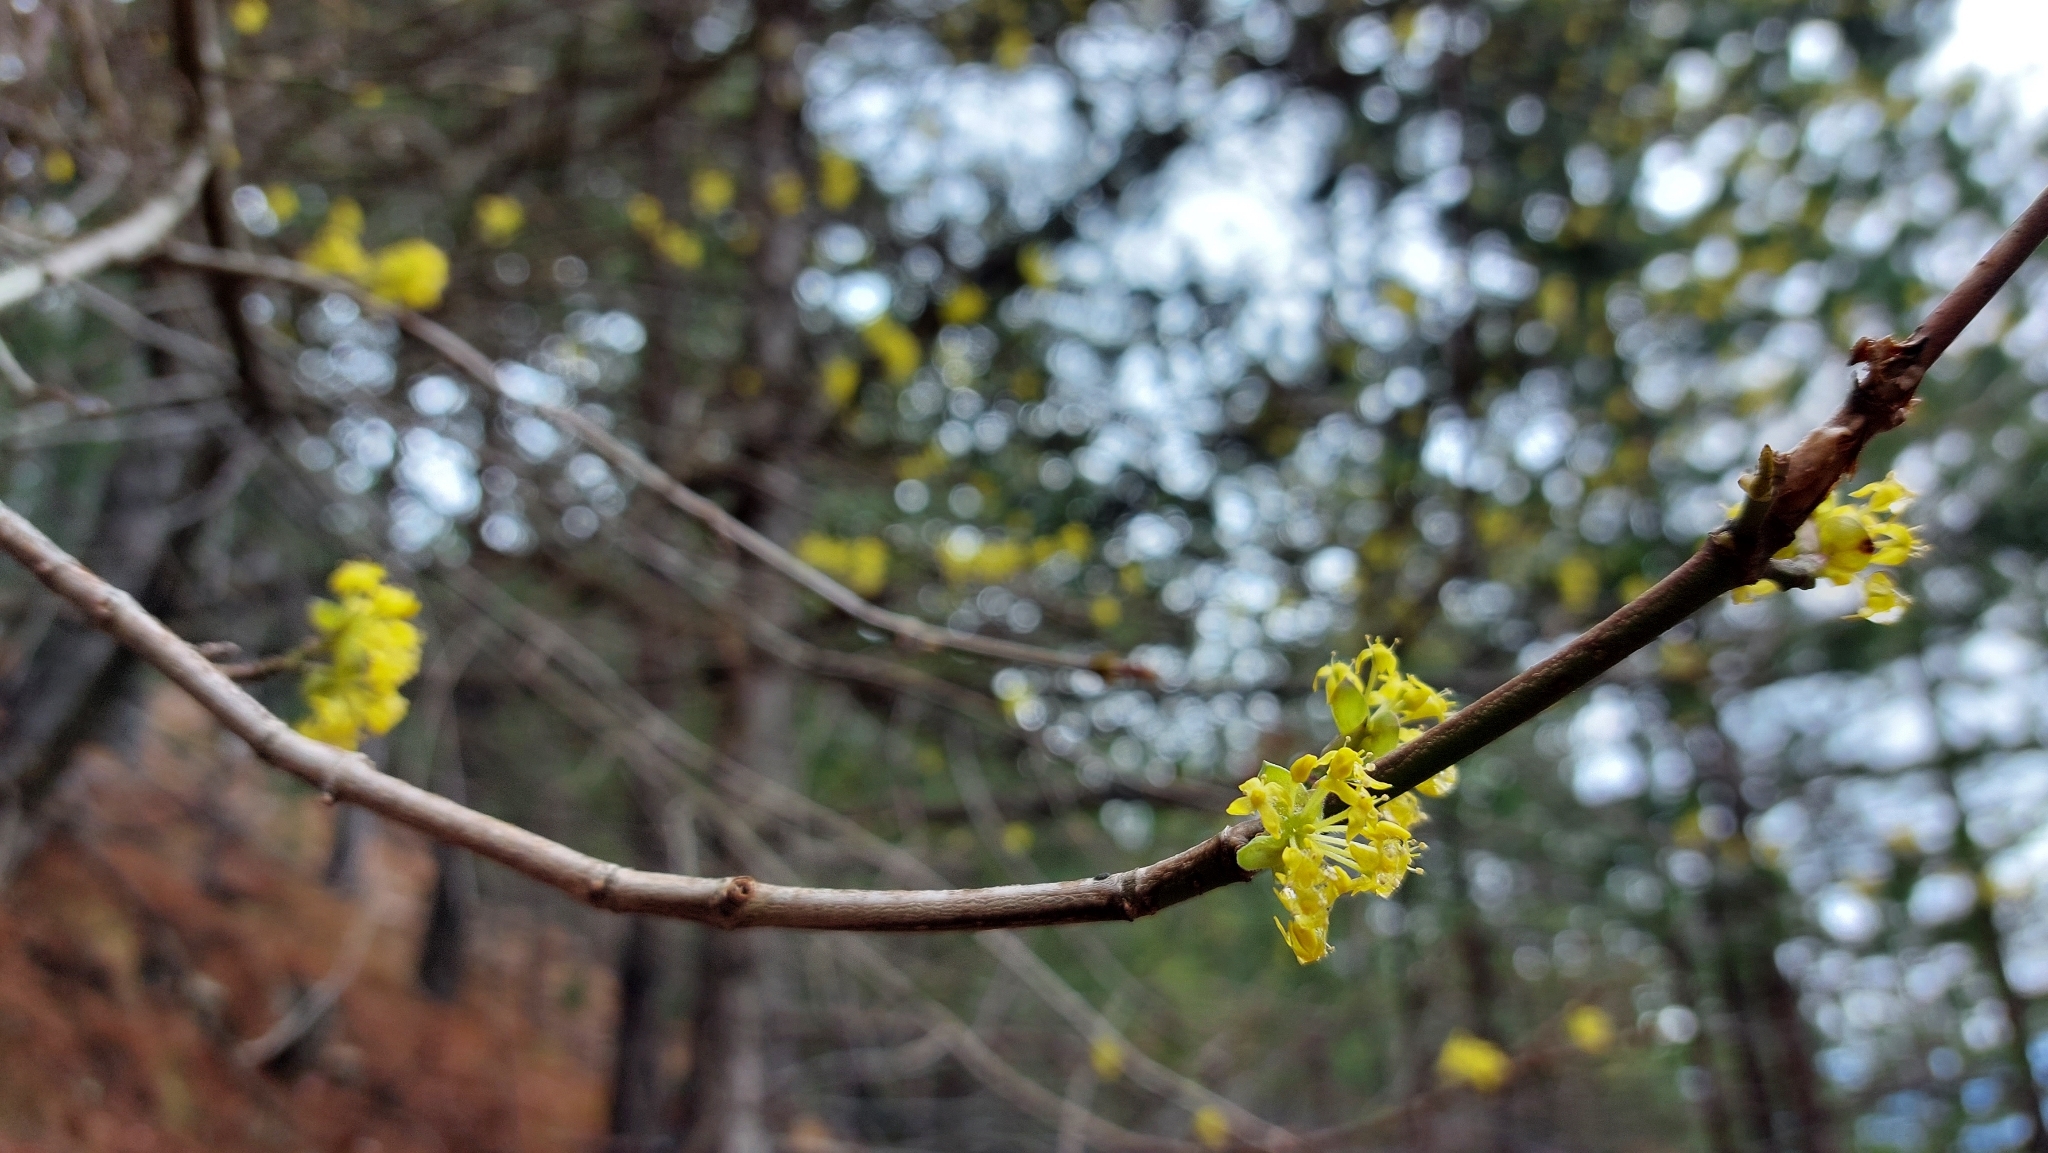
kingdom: Plantae
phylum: Tracheophyta
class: Magnoliopsida
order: Cornales
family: Cornaceae
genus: Cornus
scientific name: Cornus mas
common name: Cornelian-cherry
